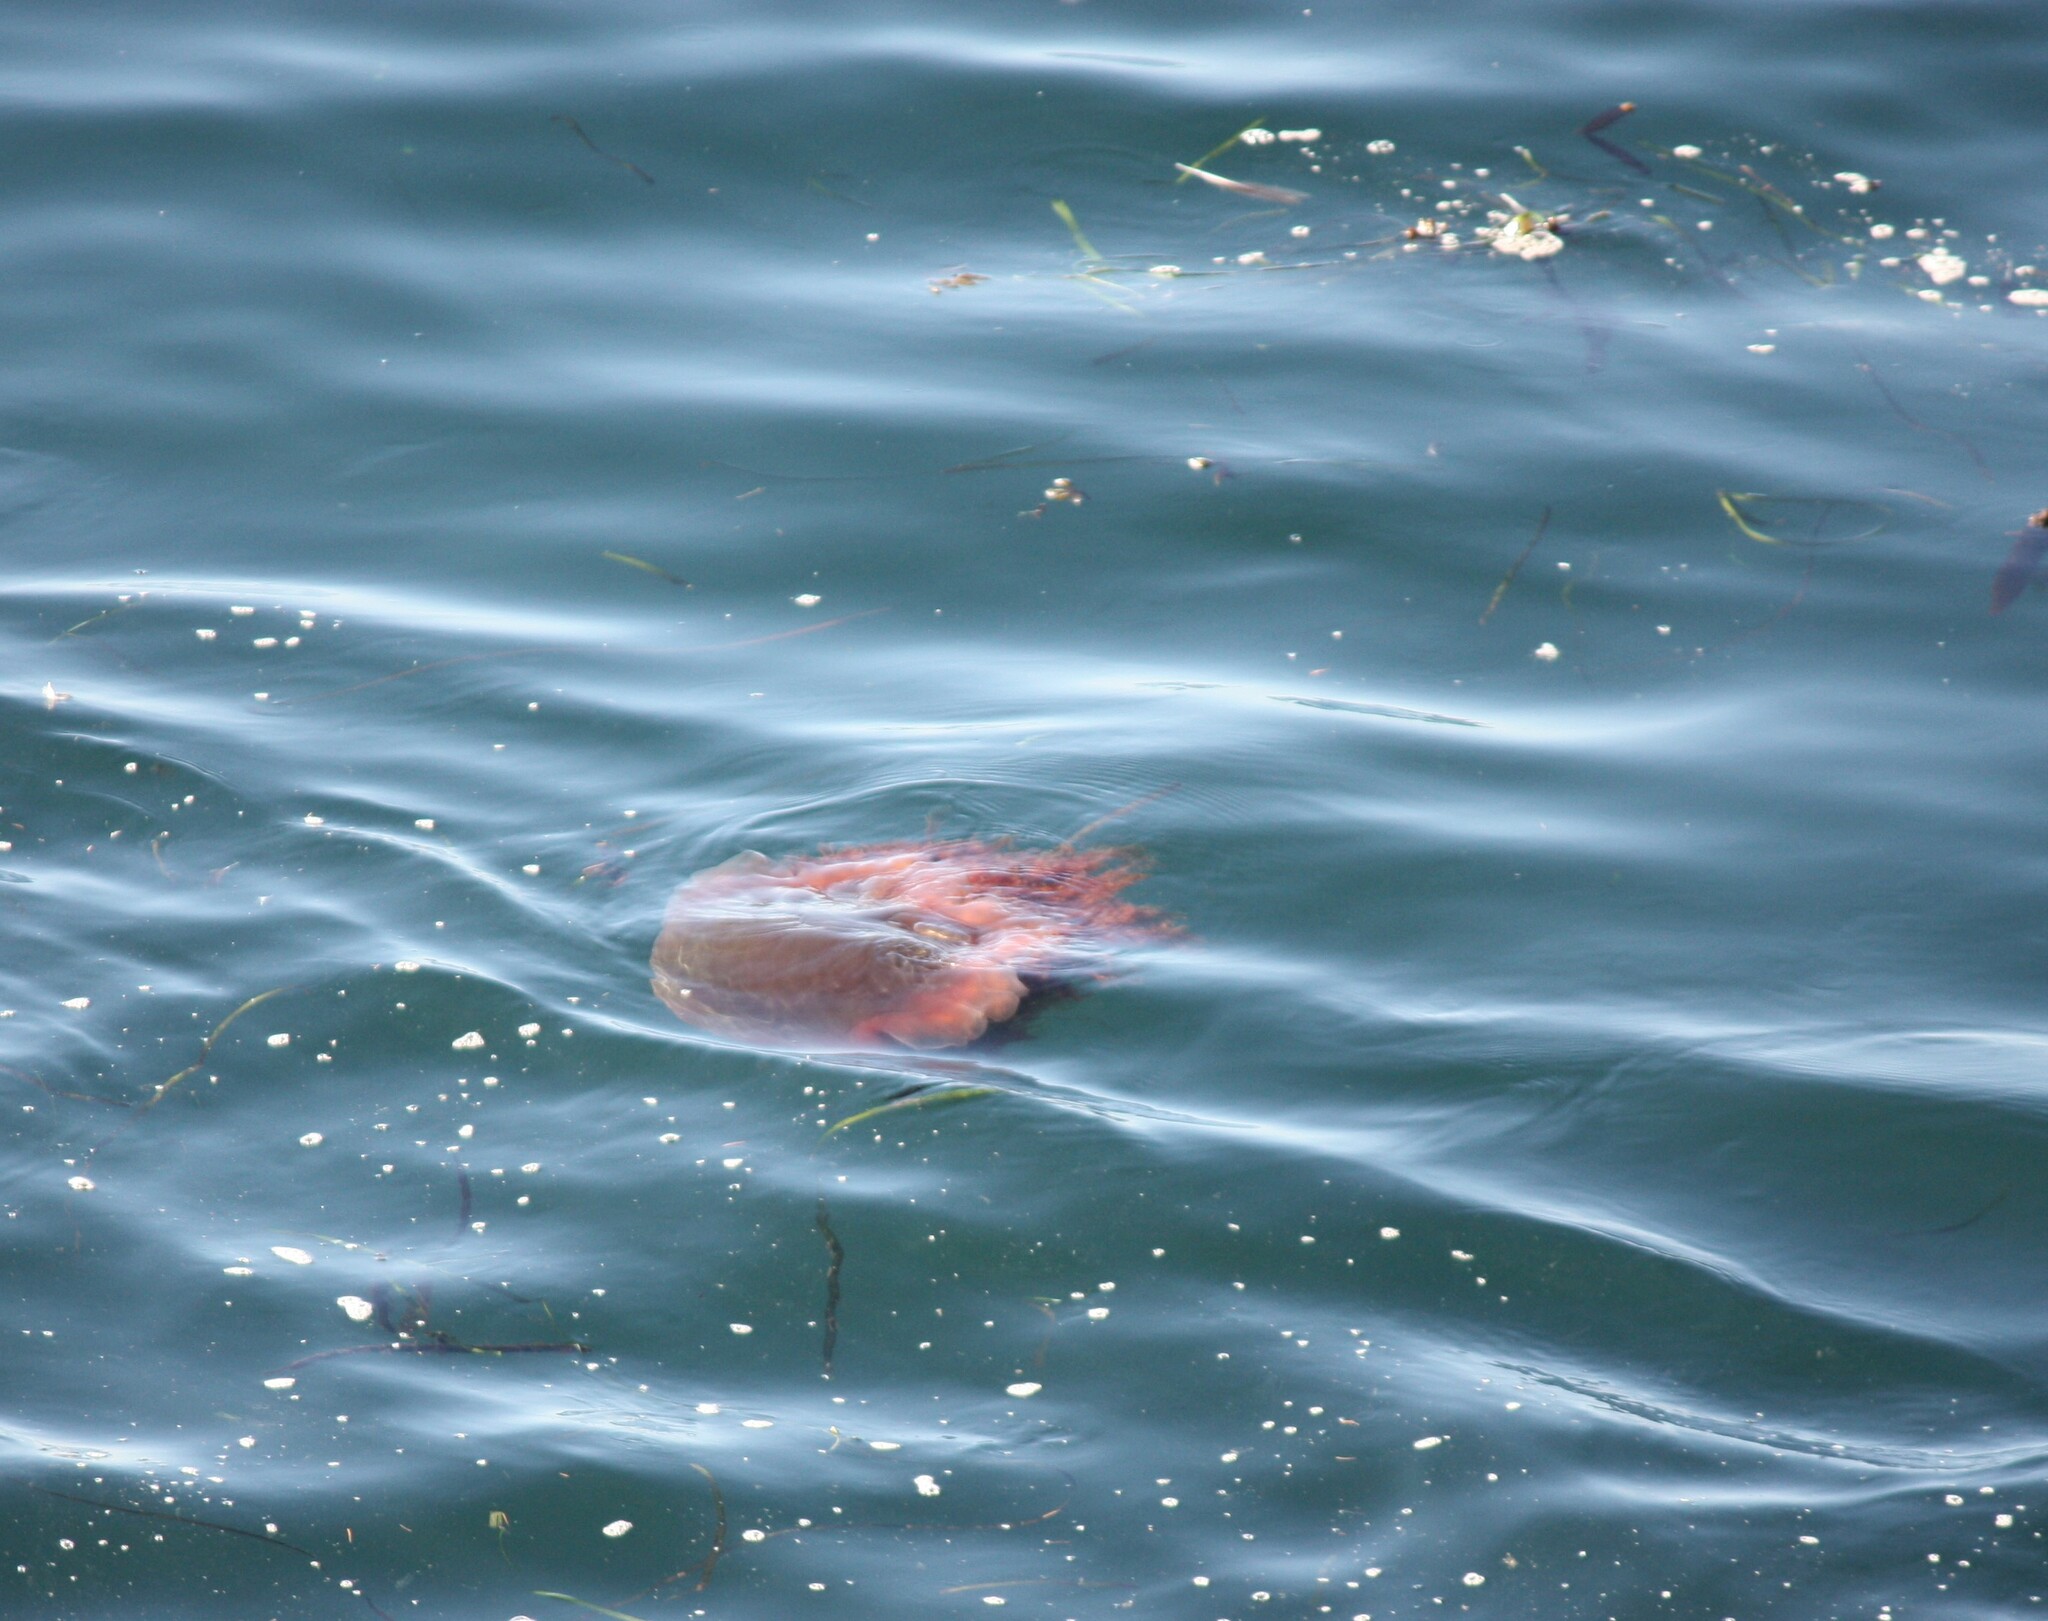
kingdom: Animalia
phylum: Cnidaria
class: Scyphozoa
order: Semaeostomeae
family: Cyaneidae
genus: Cyanea
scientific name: Cyanea ferruginea
